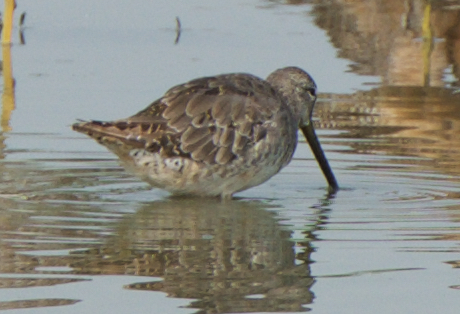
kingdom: Animalia
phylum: Chordata
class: Aves
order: Charadriiformes
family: Scolopacidae
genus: Limnodromus
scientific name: Limnodromus scolopaceus
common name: Long-billed dowitcher
